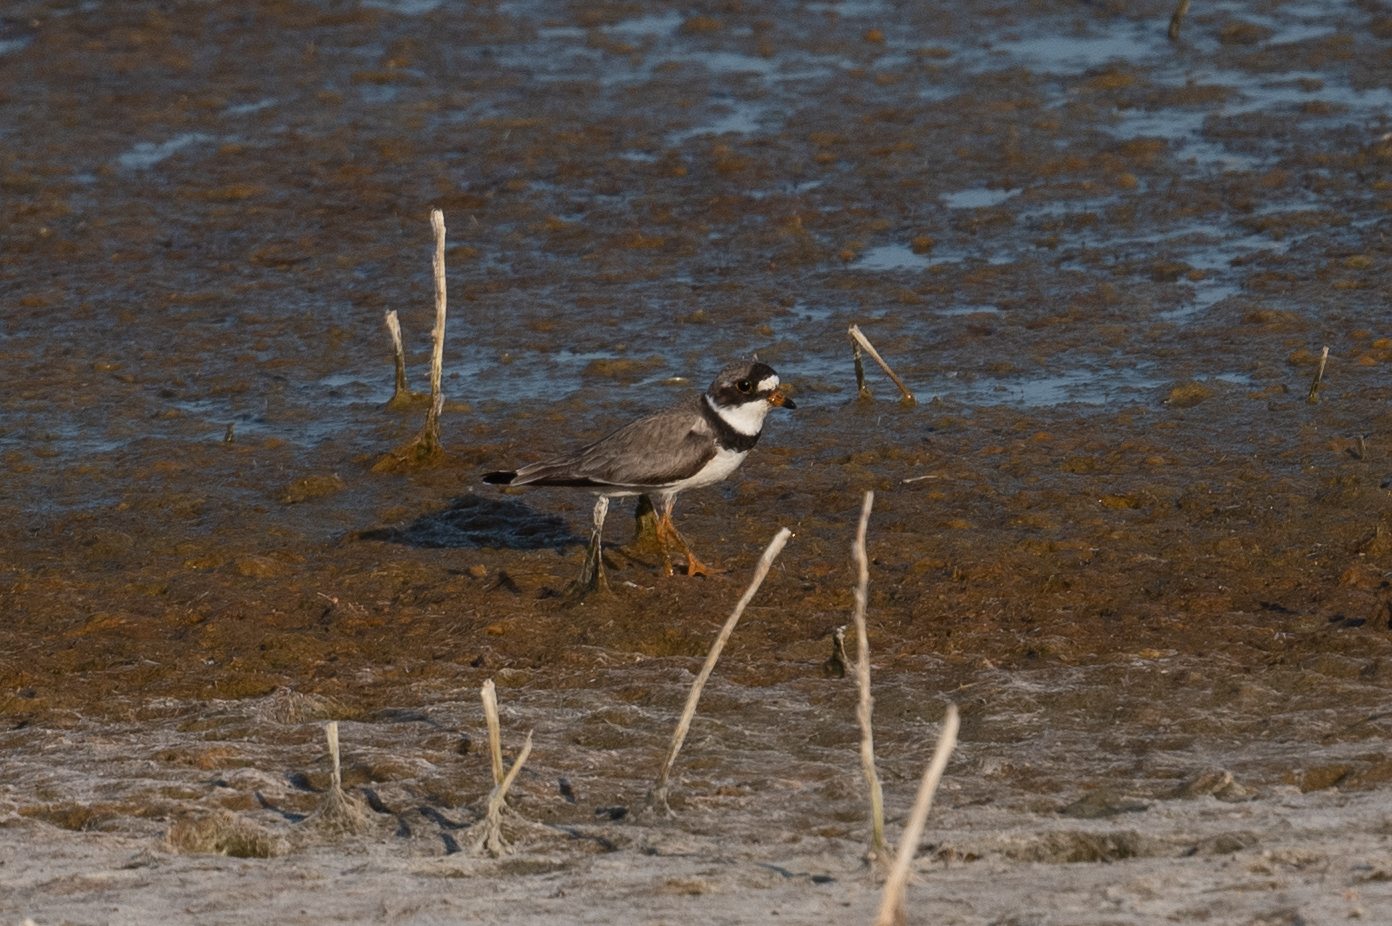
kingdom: Animalia
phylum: Chordata
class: Aves
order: Charadriiformes
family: Charadriidae
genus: Charadrius
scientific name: Charadrius semipalmatus
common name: Semipalmated plover
